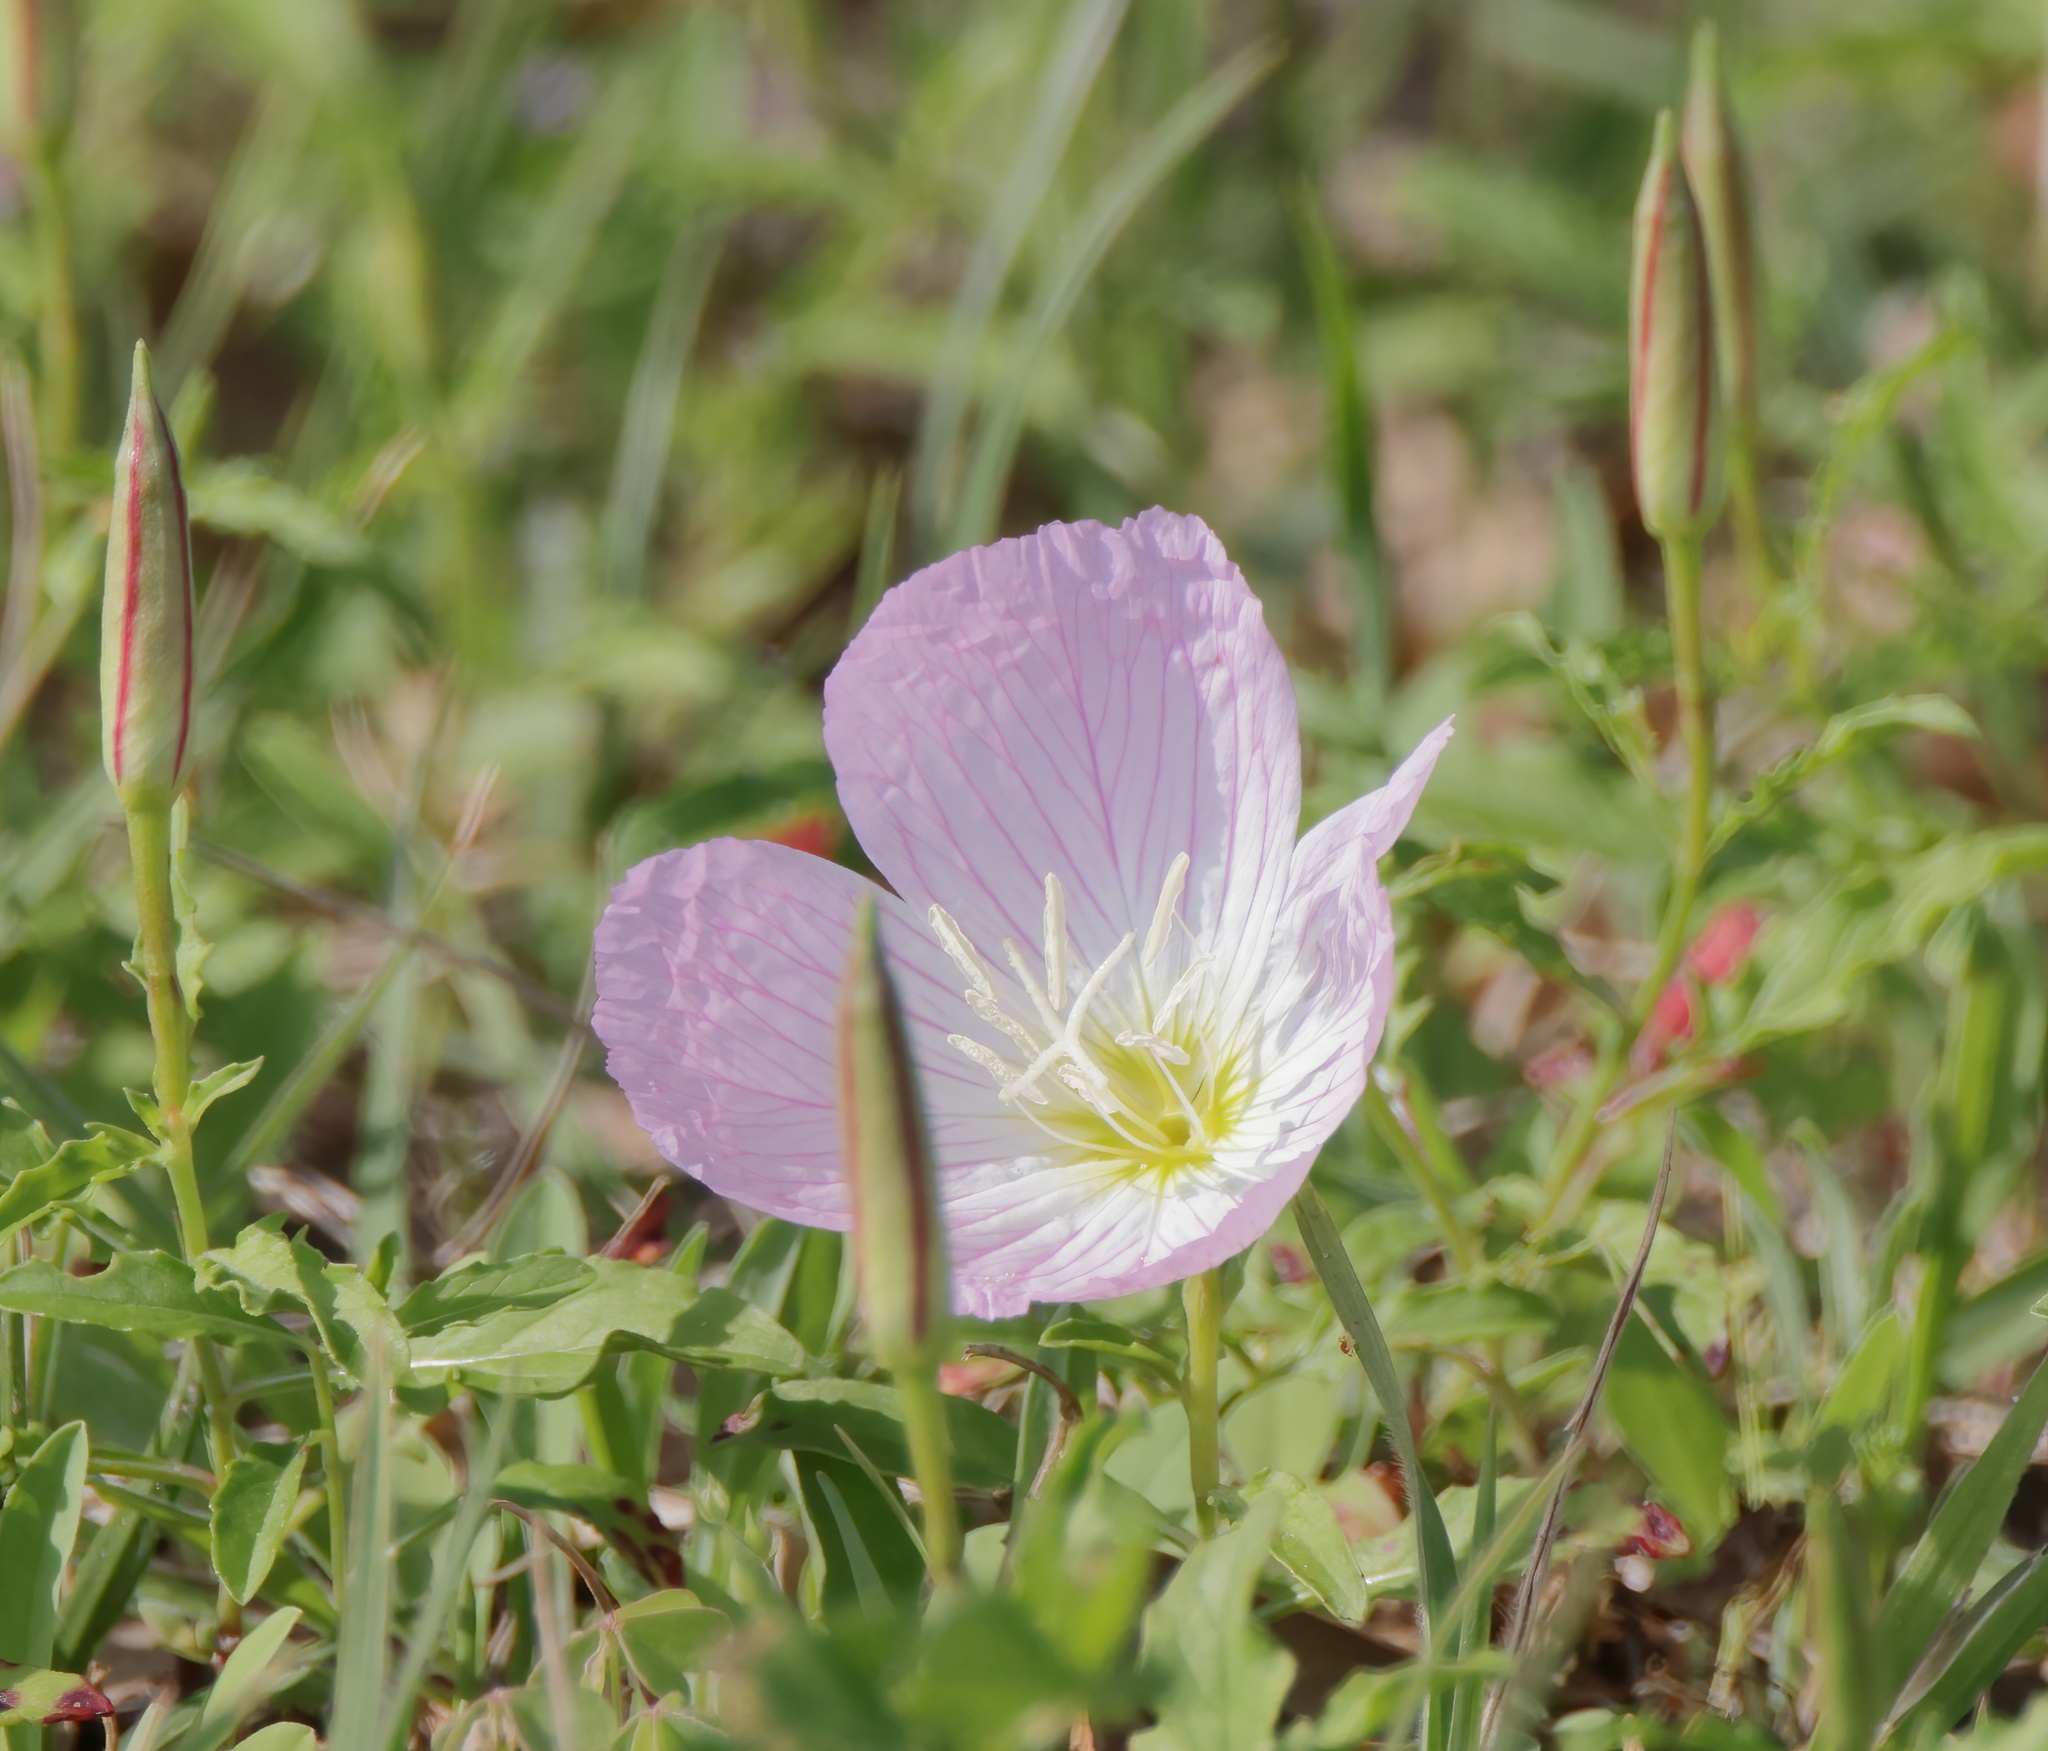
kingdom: Plantae
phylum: Tracheophyta
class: Magnoliopsida
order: Myrtales
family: Onagraceae
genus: Oenothera
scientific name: Oenothera speciosa
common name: White evening-primrose
